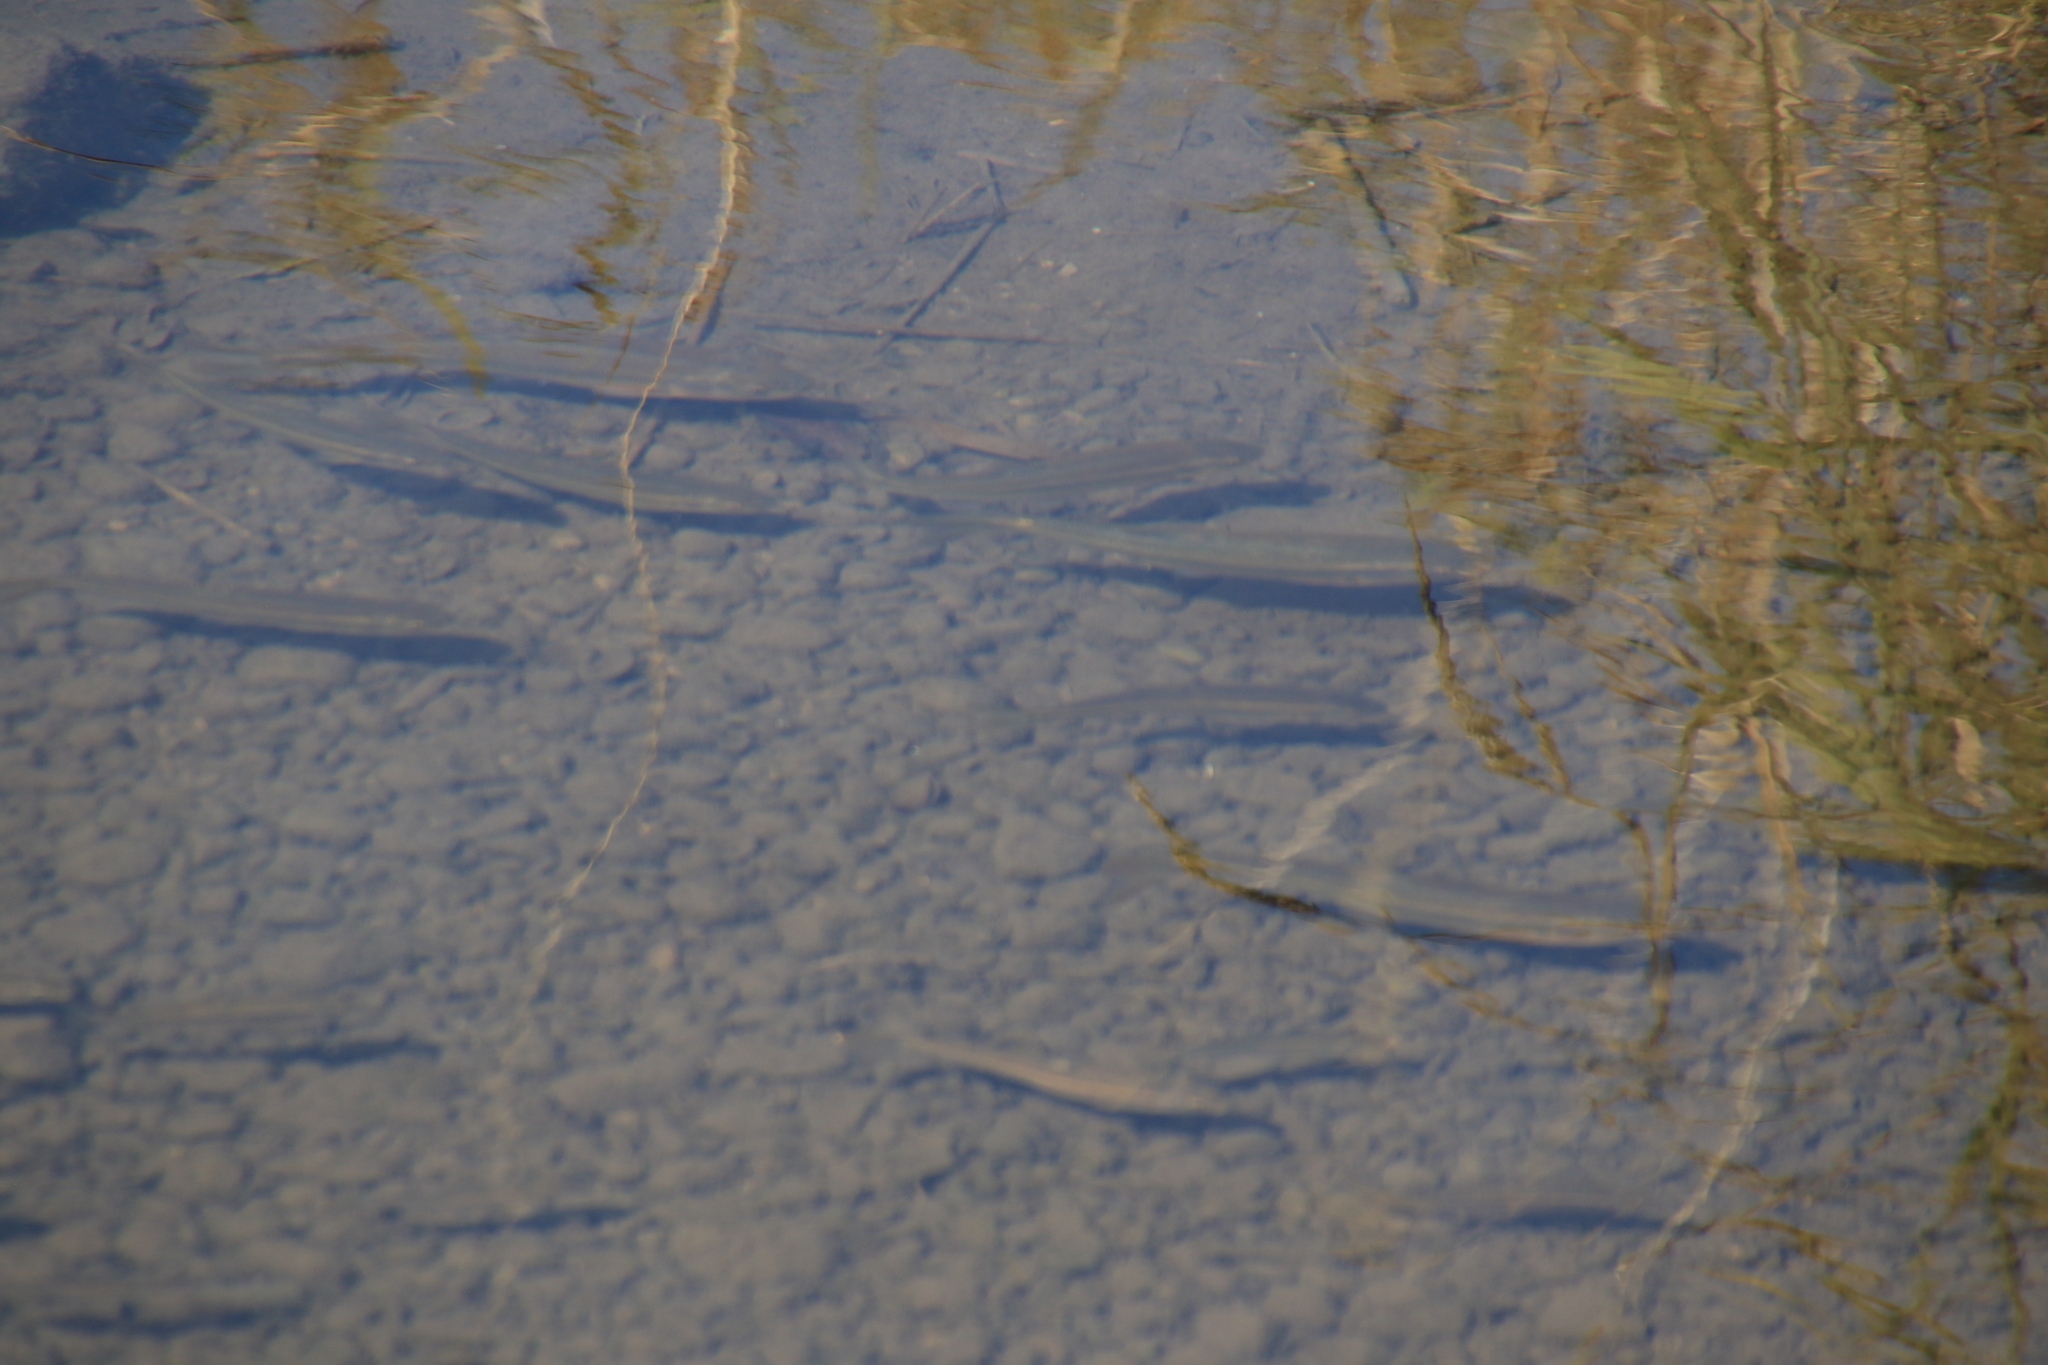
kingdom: Animalia
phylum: Chordata
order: Cypriniformes
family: Cyprinidae
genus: Semotilus
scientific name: Semotilus atromaculatus
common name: Creek chub
